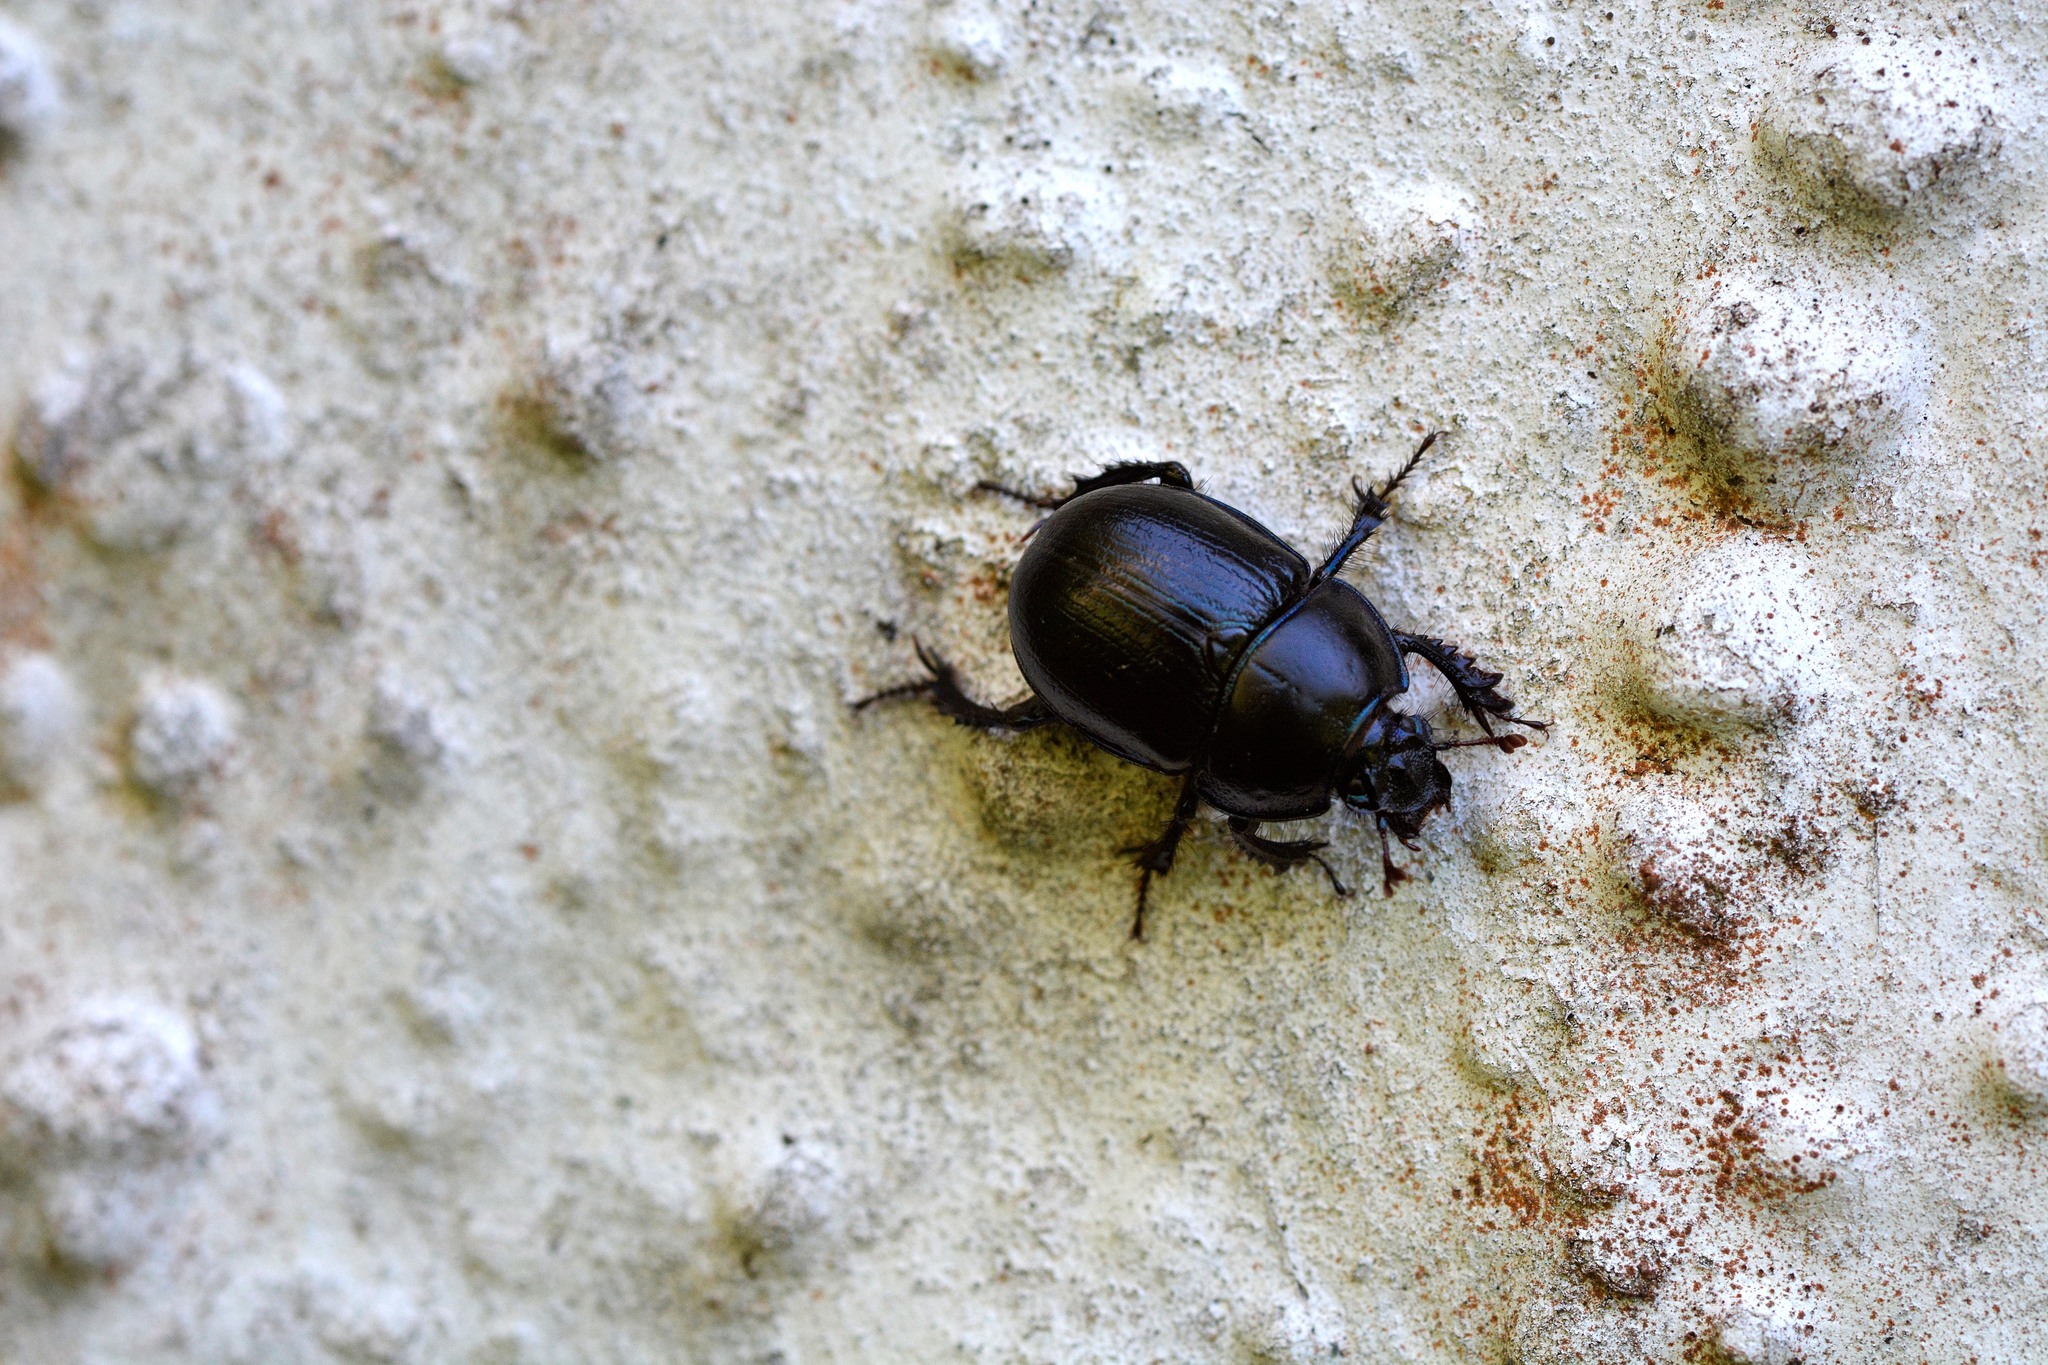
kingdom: Animalia
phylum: Arthropoda
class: Insecta
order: Coleoptera
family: Geotrupidae
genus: Anoplotrupes
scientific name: Anoplotrupes stercorosus
